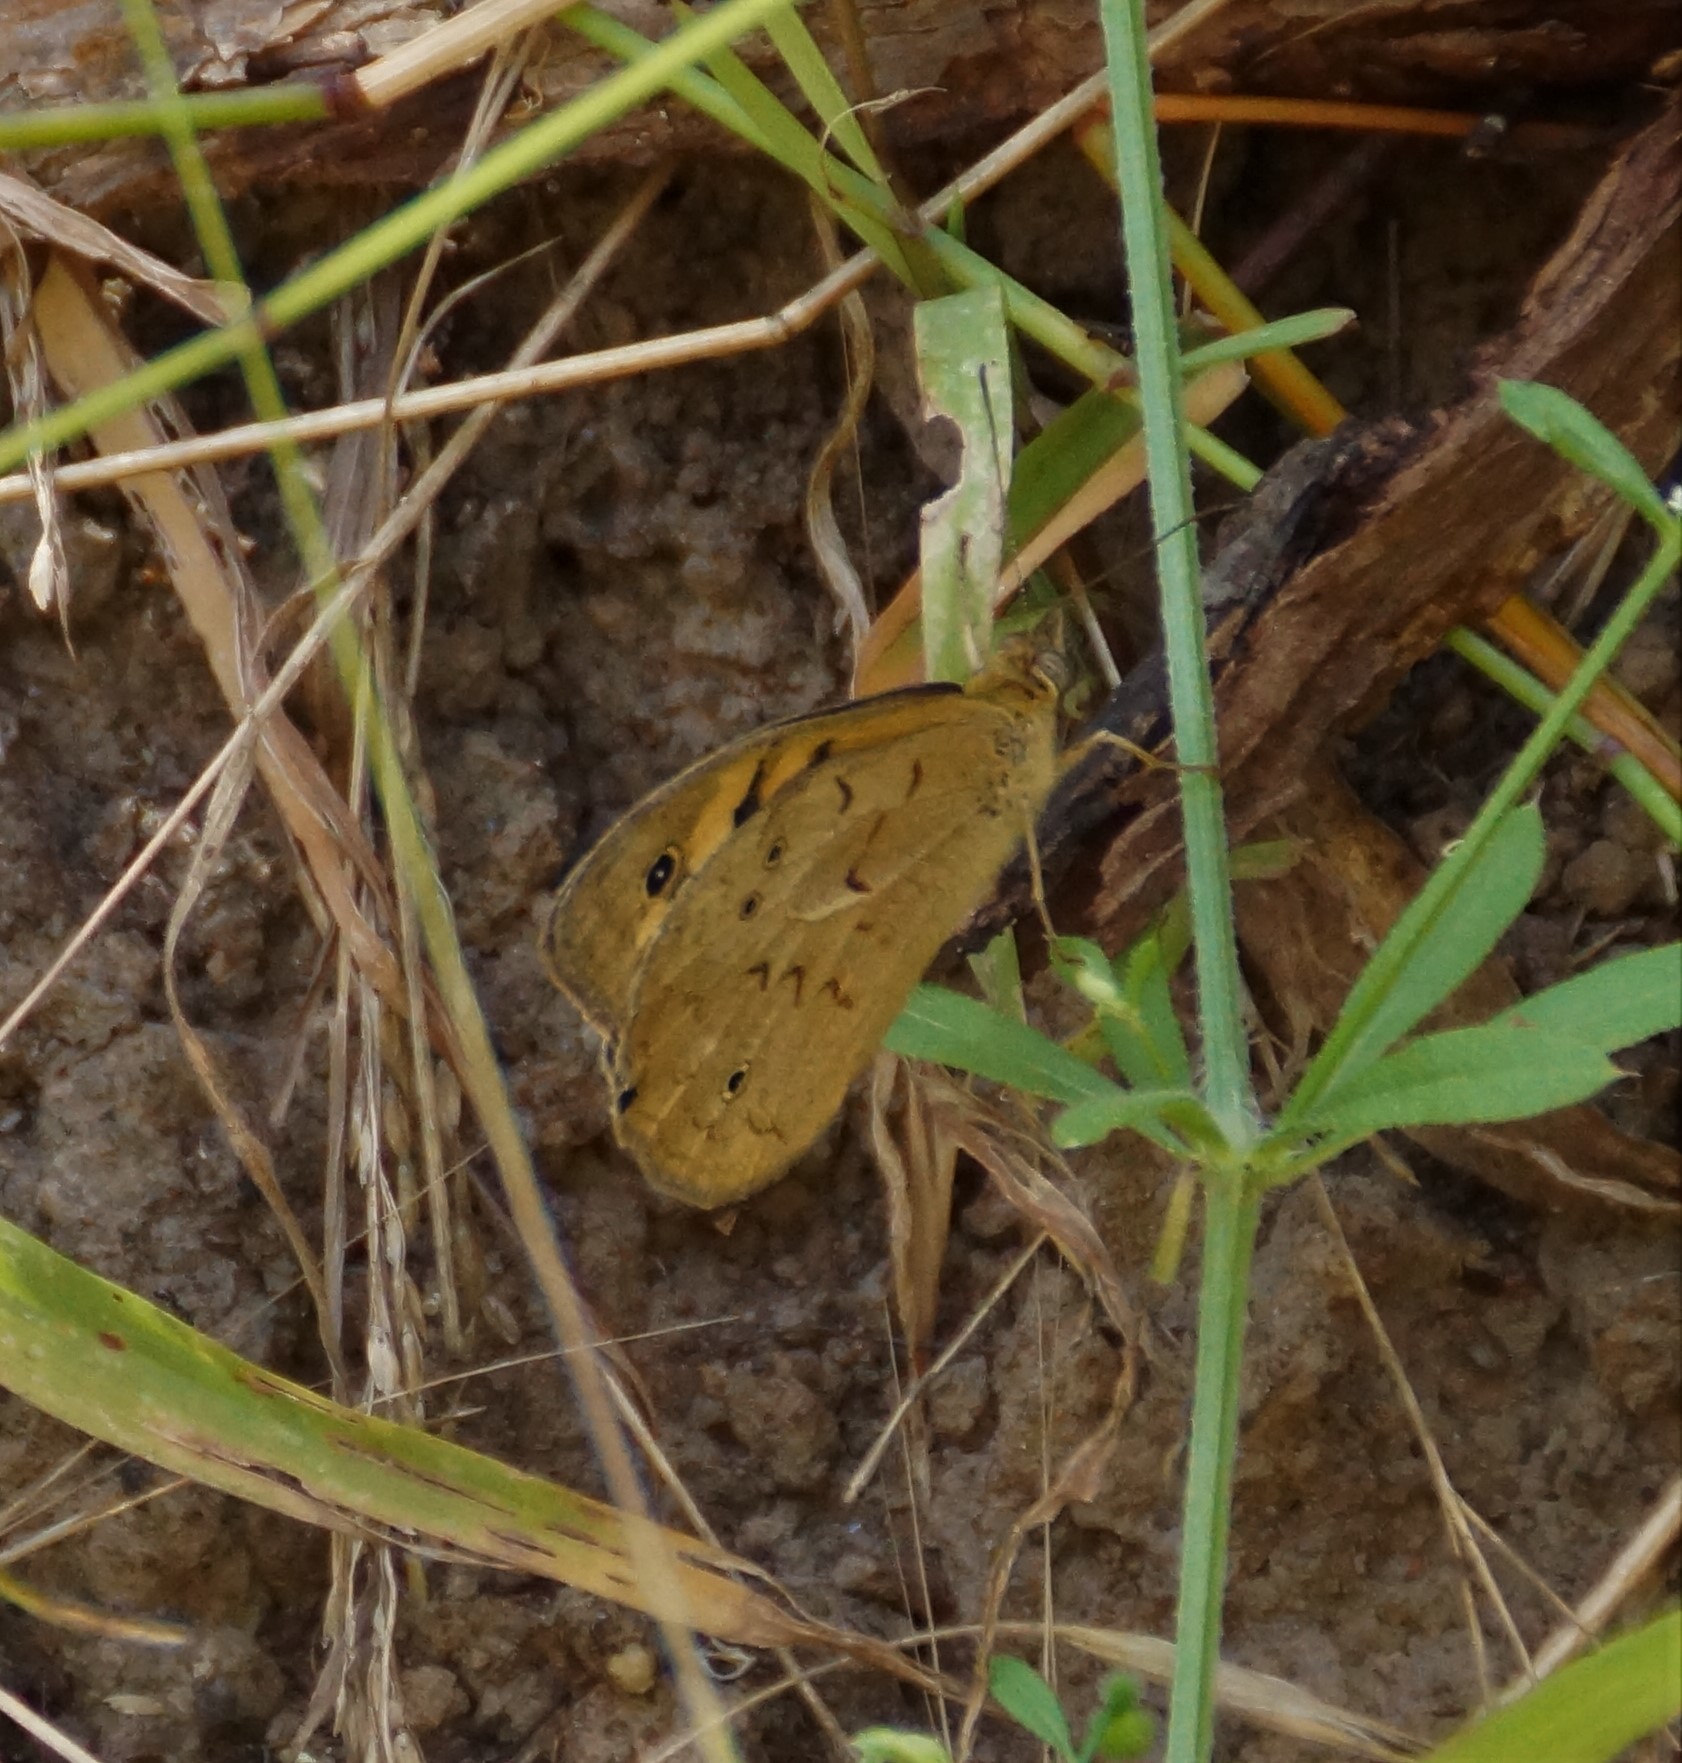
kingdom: Animalia
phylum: Arthropoda
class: Insecta
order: Lepidoptera
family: Nymphalidae
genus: Heteronympha
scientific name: Heteronympha merope
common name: Common brown
